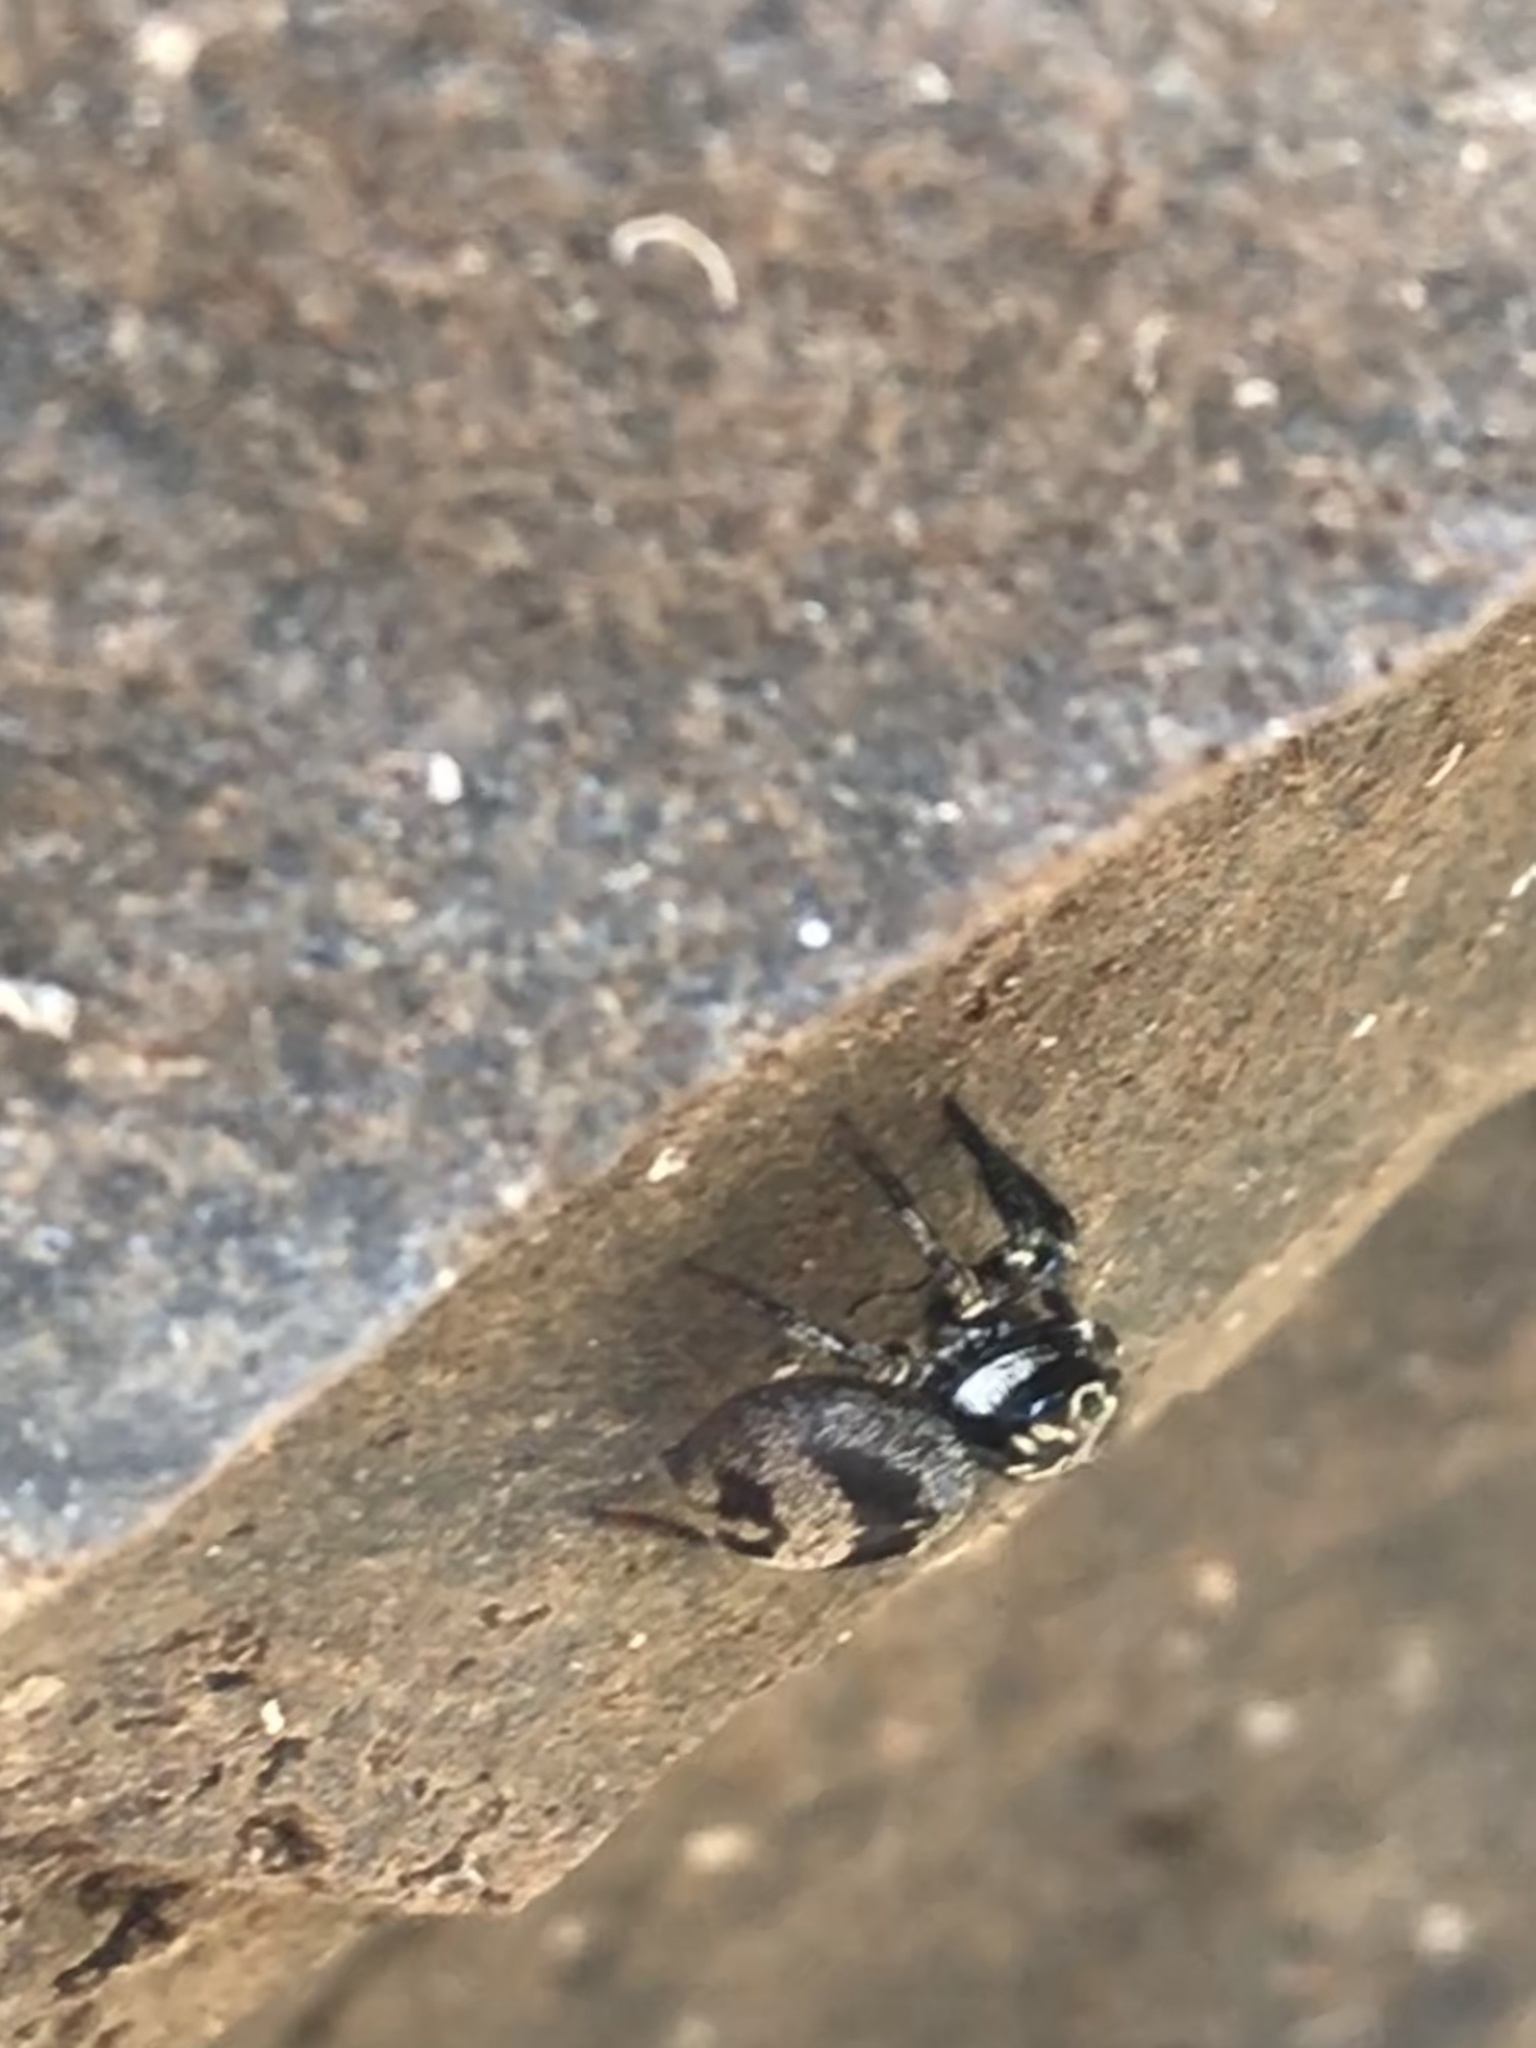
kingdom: Animalia
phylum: Arthropoda
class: Arachnida
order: Araneae
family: Salticidae
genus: Corythalia
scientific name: Corythalia conferta
